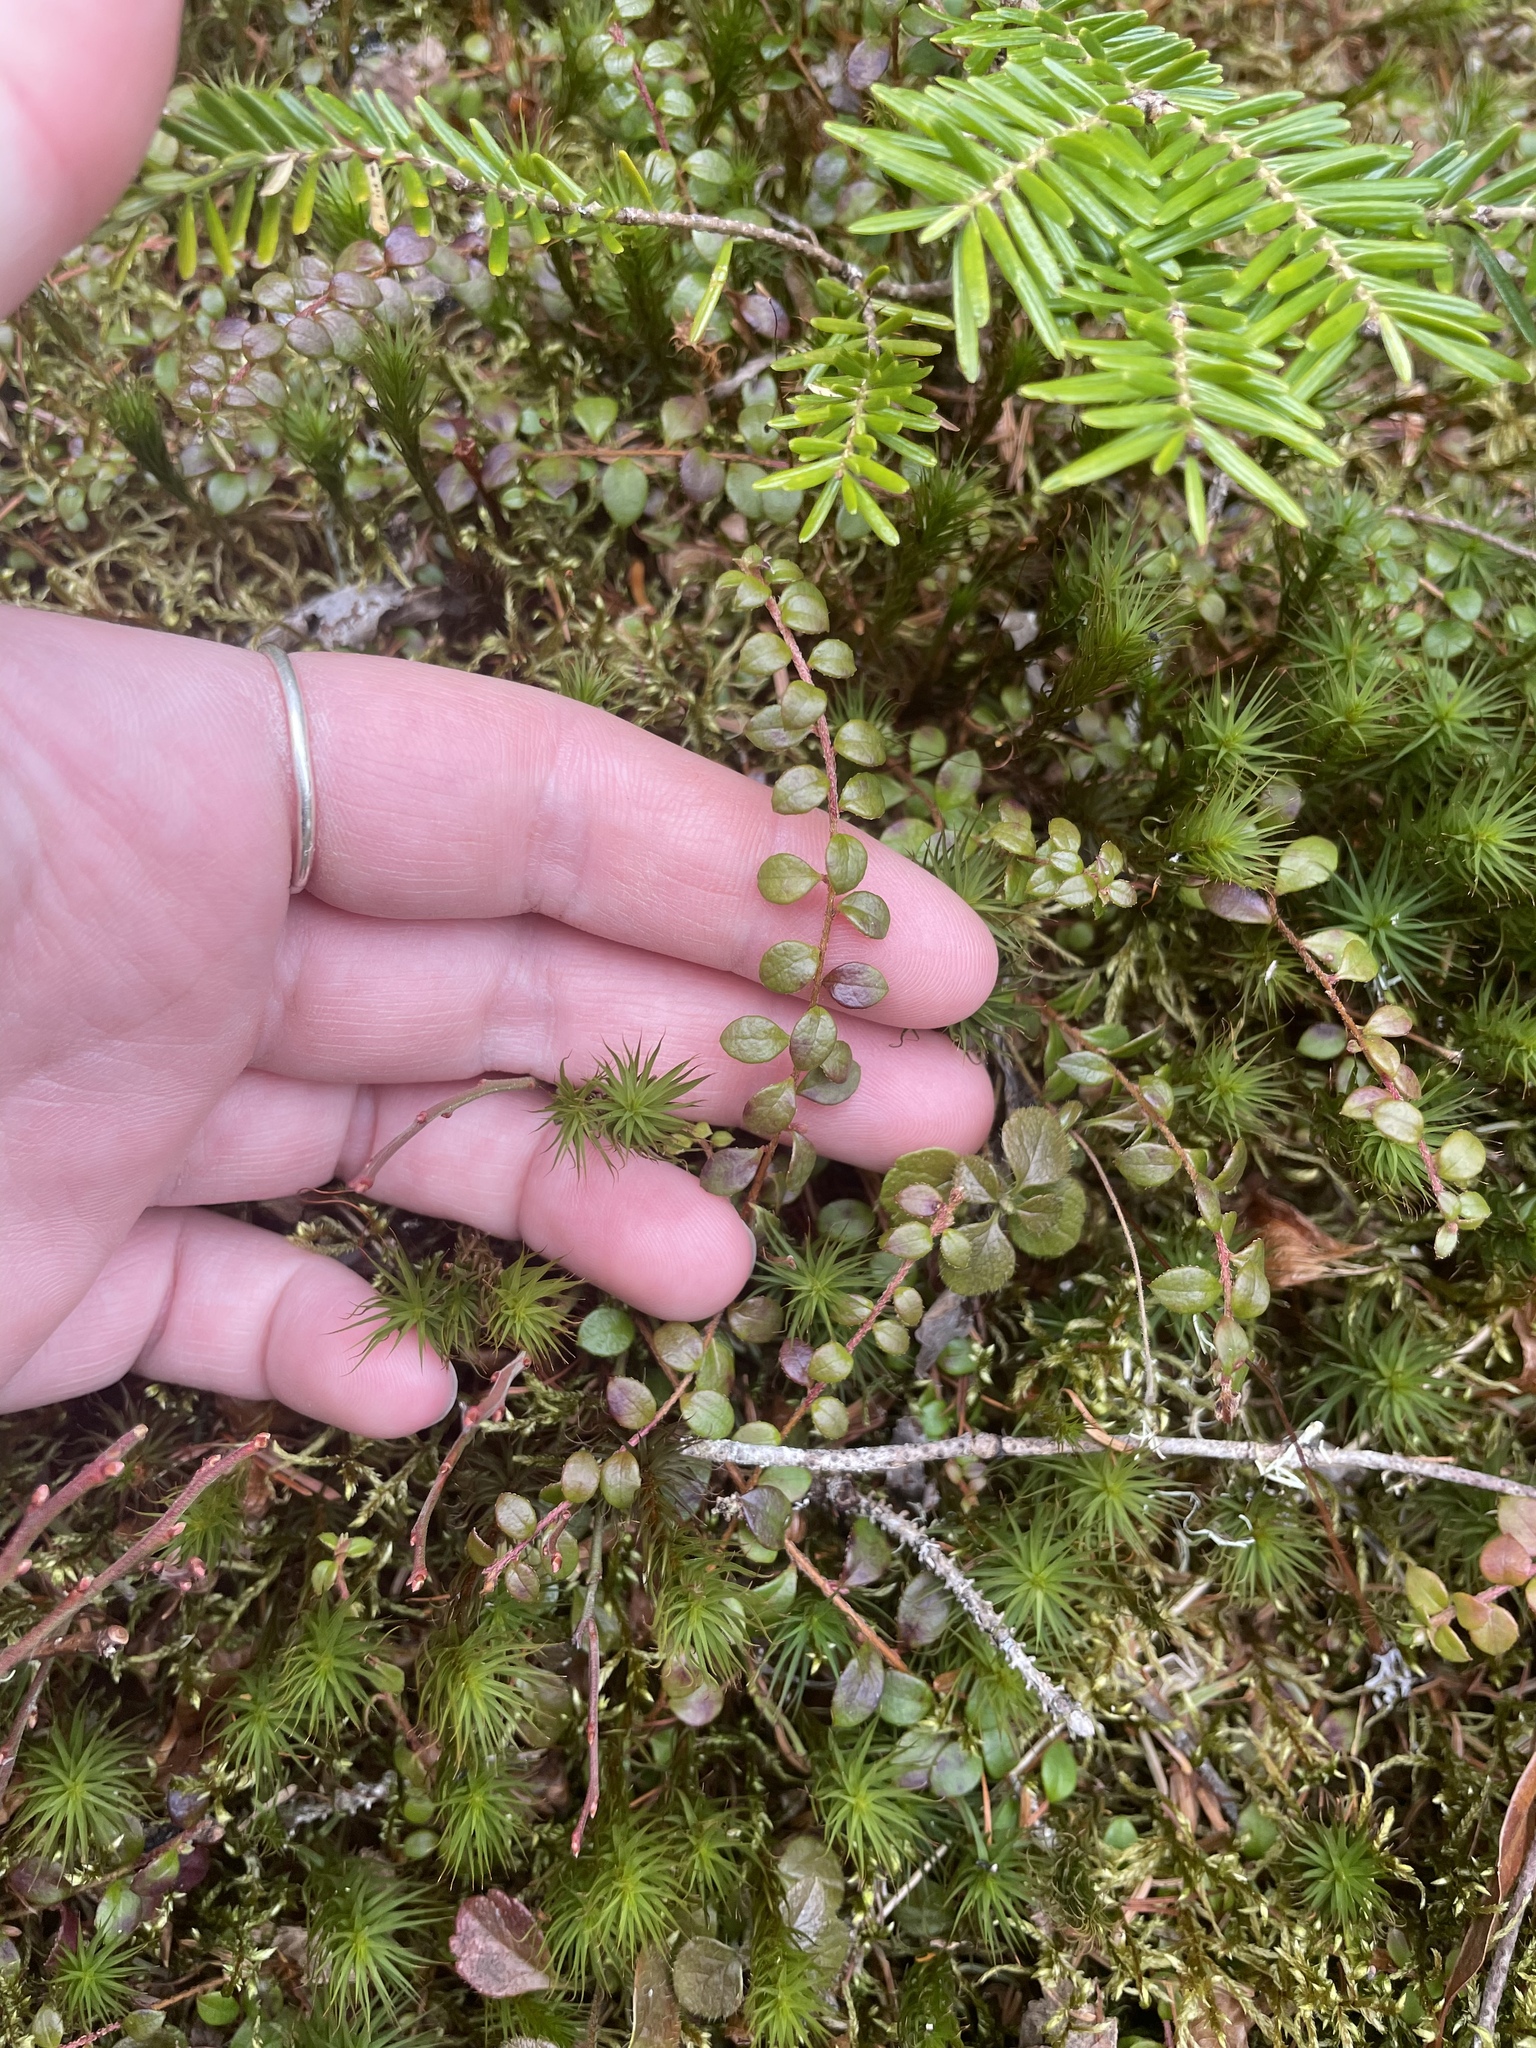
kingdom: Plantae
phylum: Tracheophyta
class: Magnoliopsida
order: Ericales
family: Ericaceae
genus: Gaultheria
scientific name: Gaultheria hispidula
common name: Cancer wintergreen
